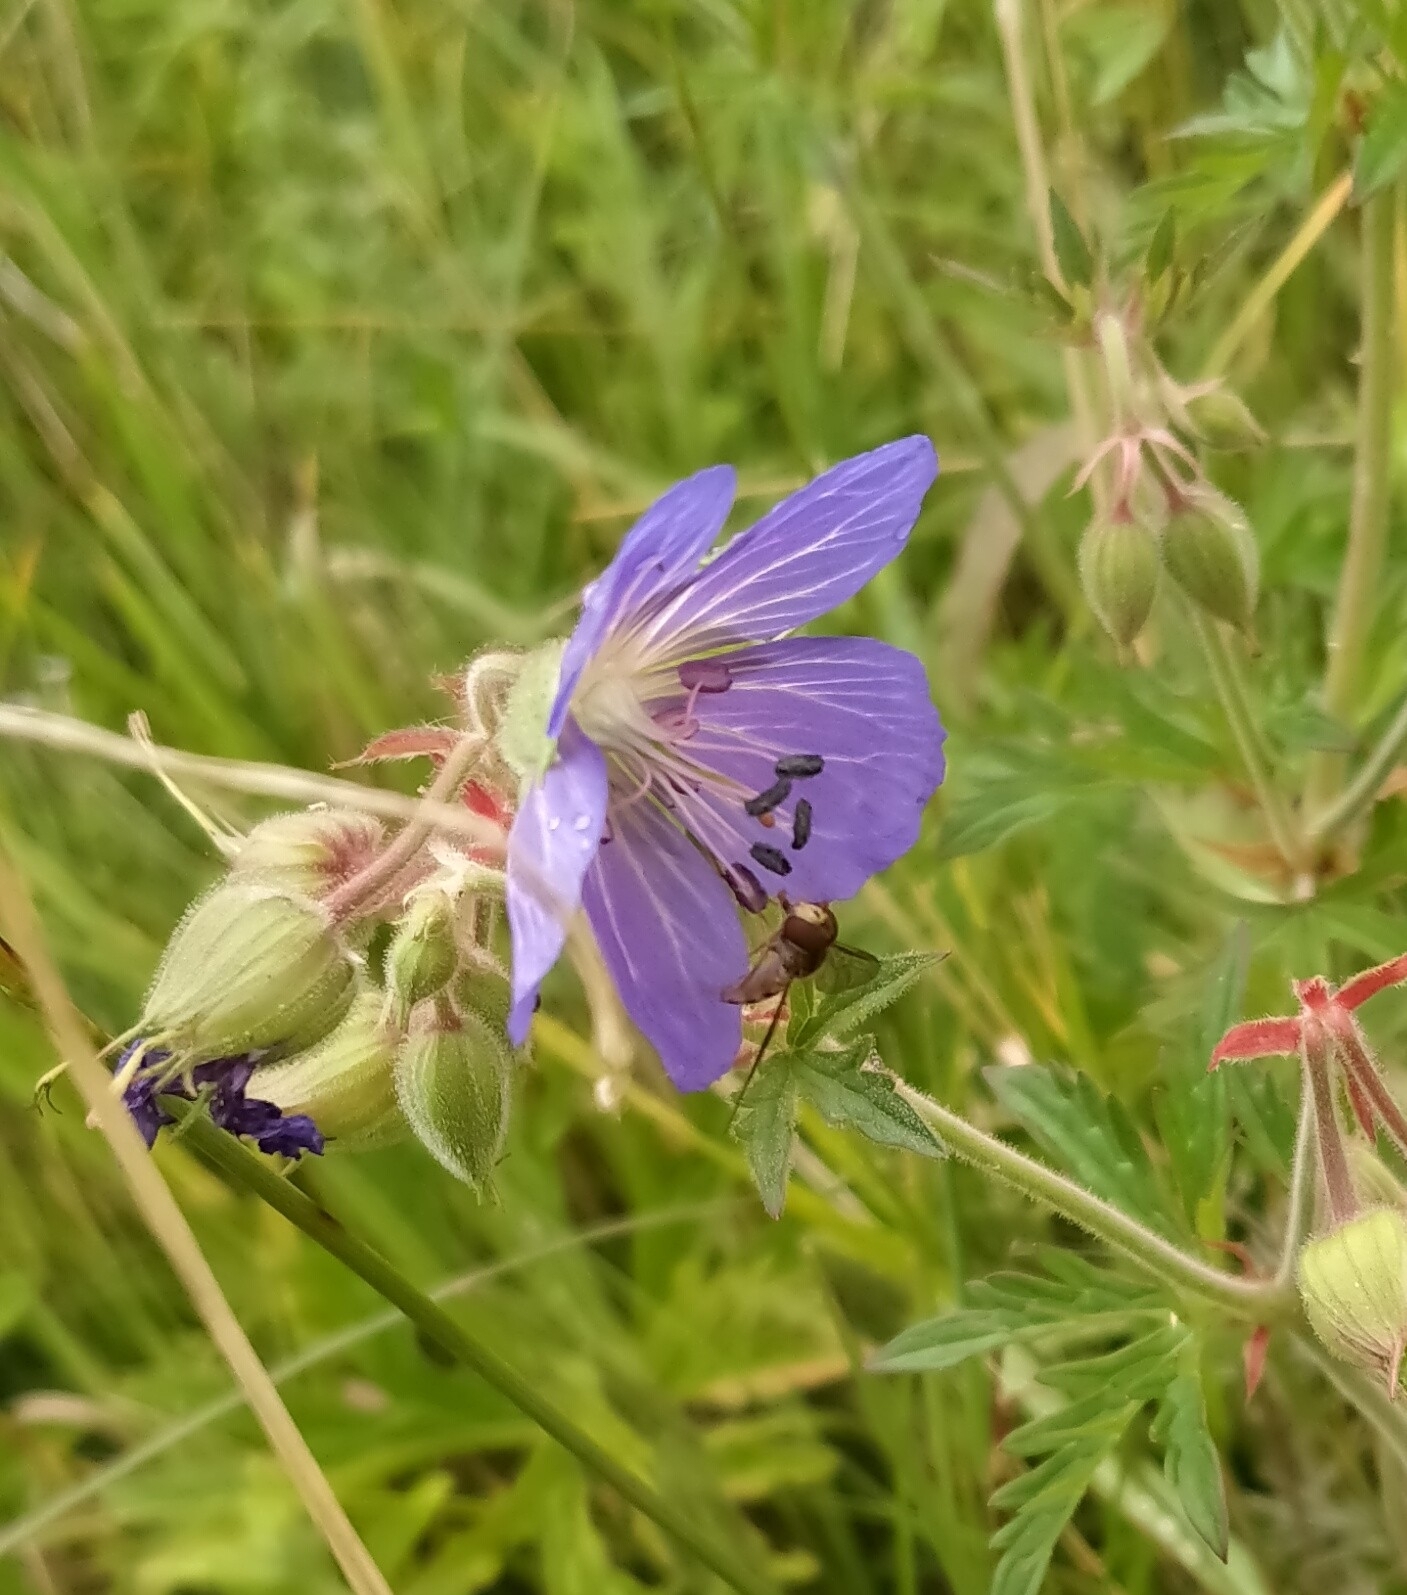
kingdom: Plantae
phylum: Tracheophyta
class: Magnoliopsida
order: Geraniales
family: Geraniaceae
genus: Geranium
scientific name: Geranium pratense
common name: Meadow crane's-bill
